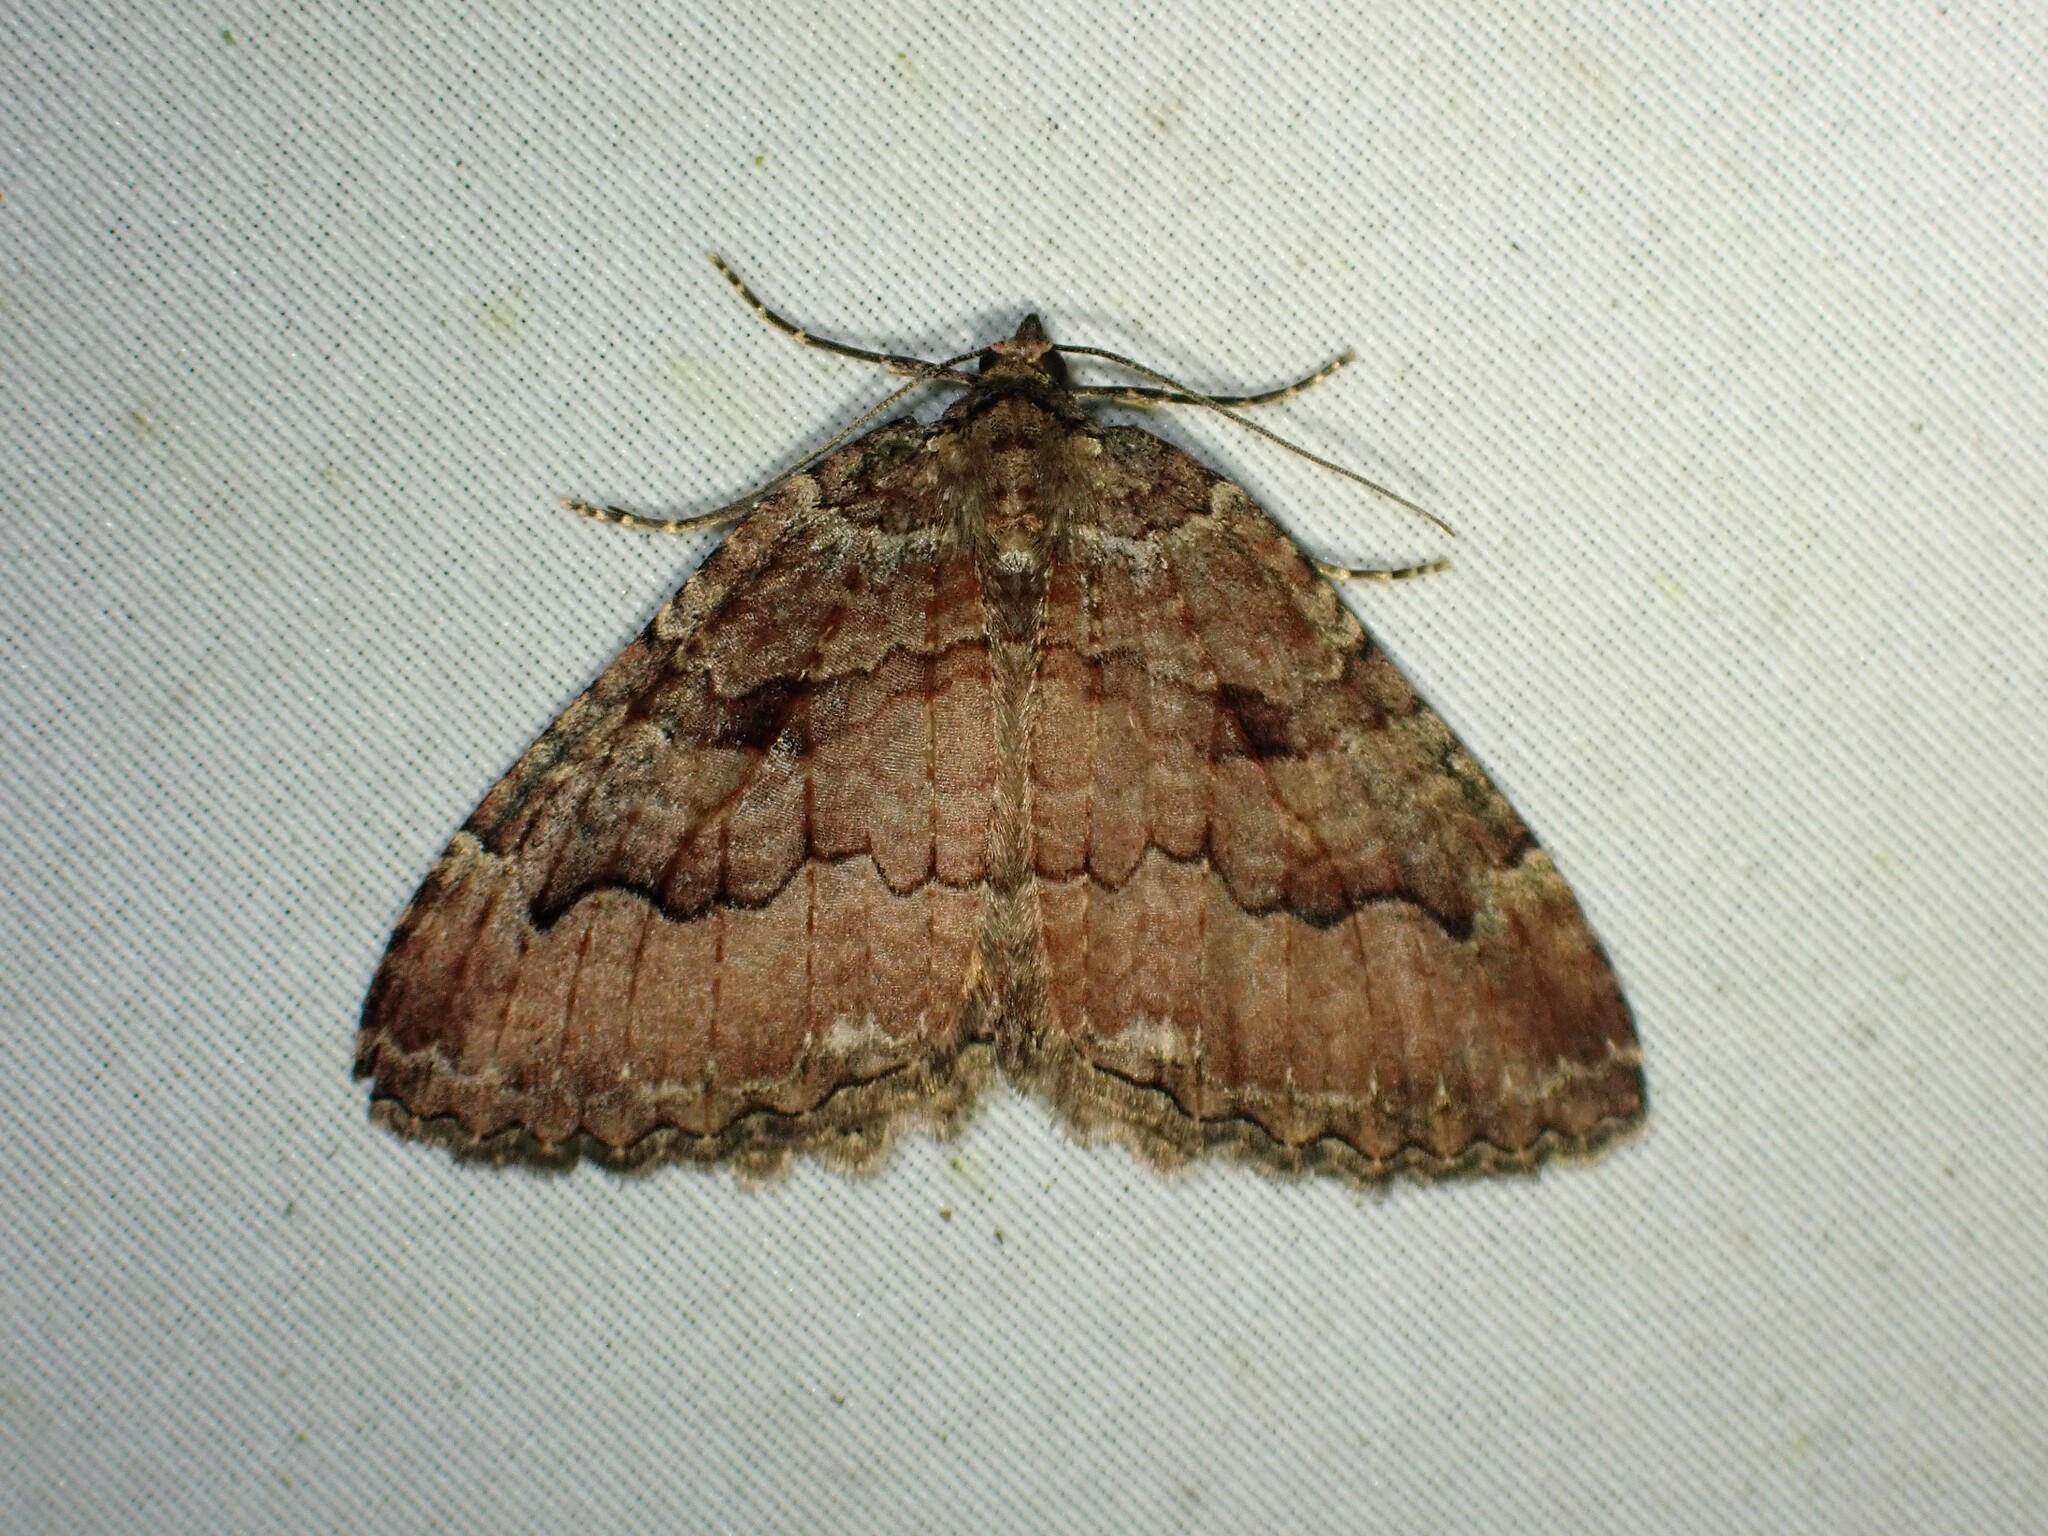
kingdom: Animalia
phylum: Arthropoda
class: Insecta
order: Lepidoptera
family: Geometridae
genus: Triphosa
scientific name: Triphosa haesitata
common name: Tissue moth
